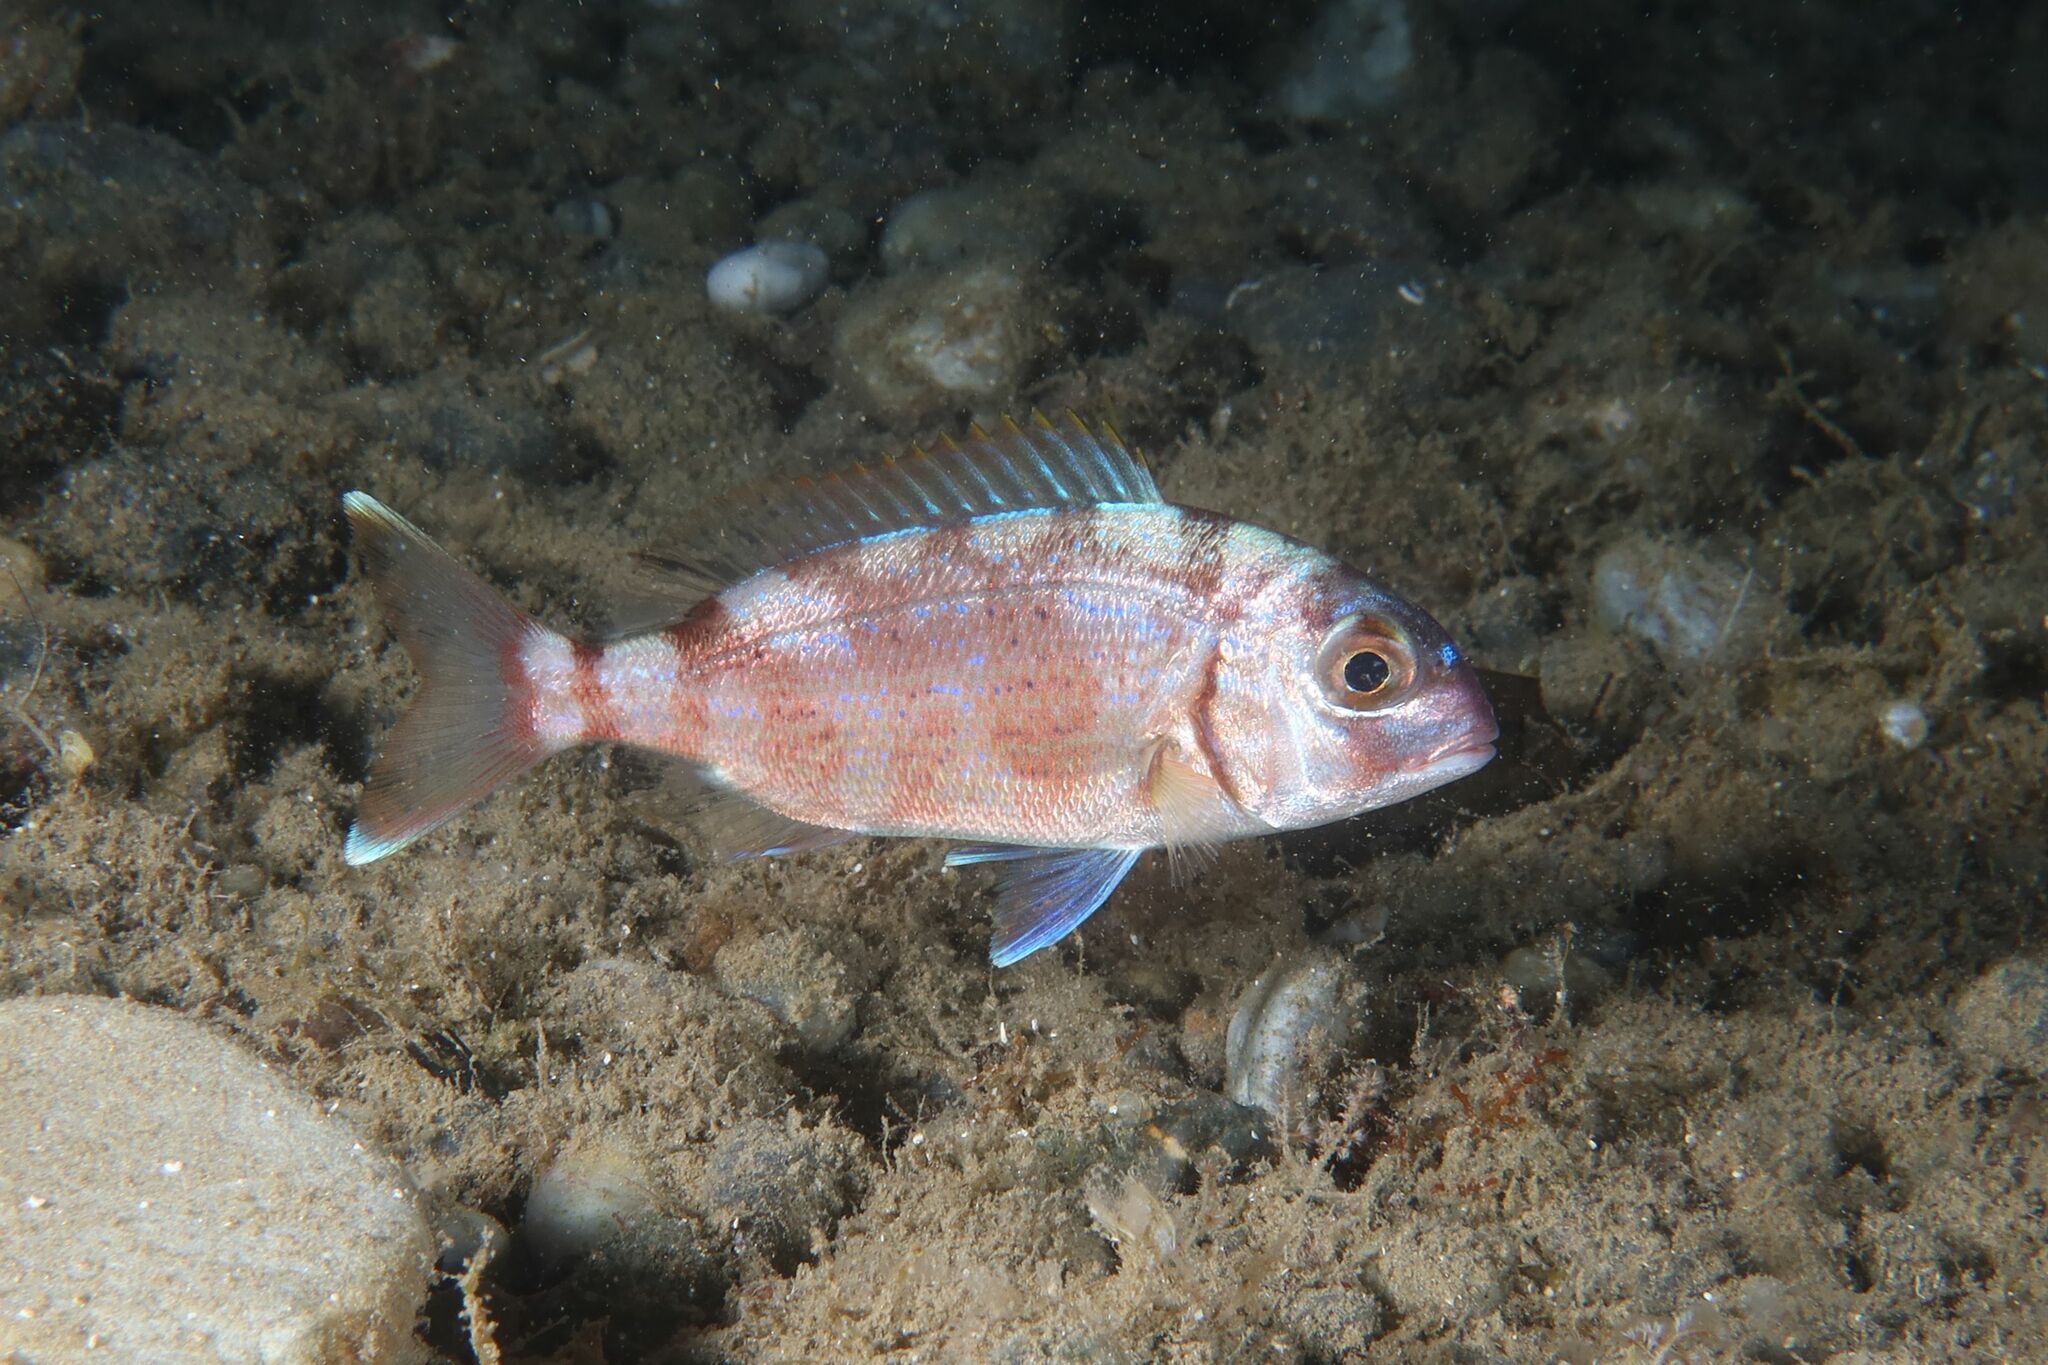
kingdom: Animalia
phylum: Chordata
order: Perciformes
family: Sparidae
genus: Pagrus
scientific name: Pagrus pagrus
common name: Red porgy
